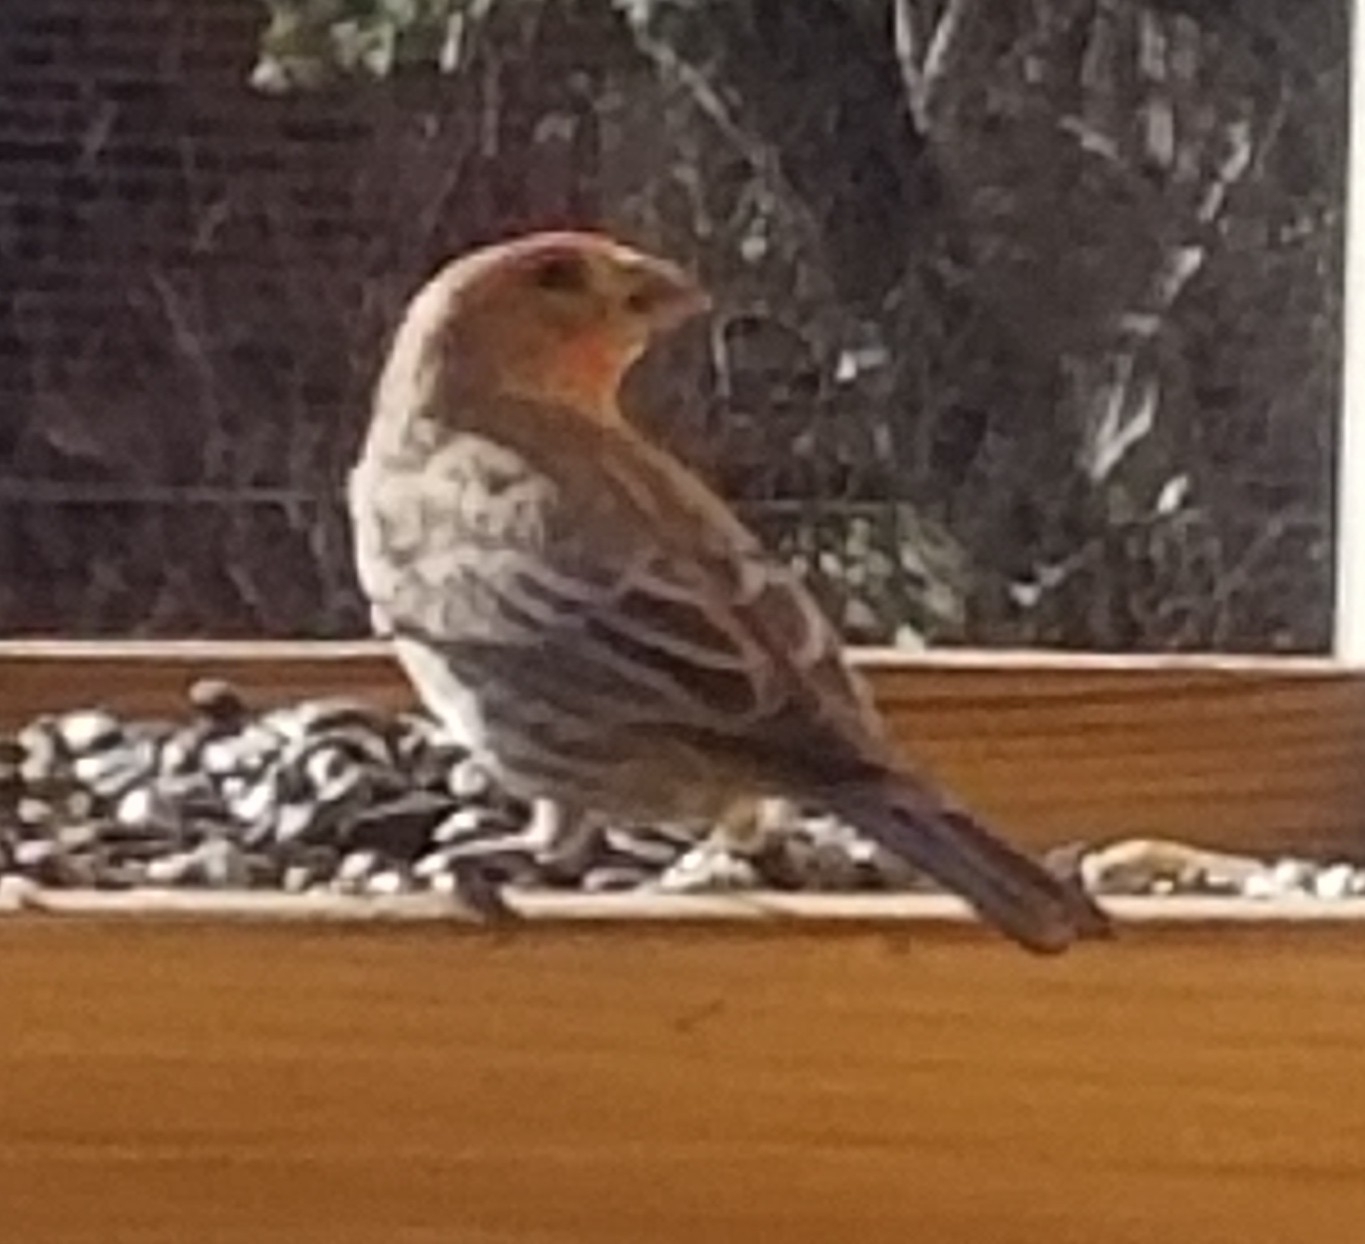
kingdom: Animalia
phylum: Chordata
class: Aves
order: Passeriformes
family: Fringillidae
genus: Haemorhous
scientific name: Haemorhous mexicanus
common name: House finch
